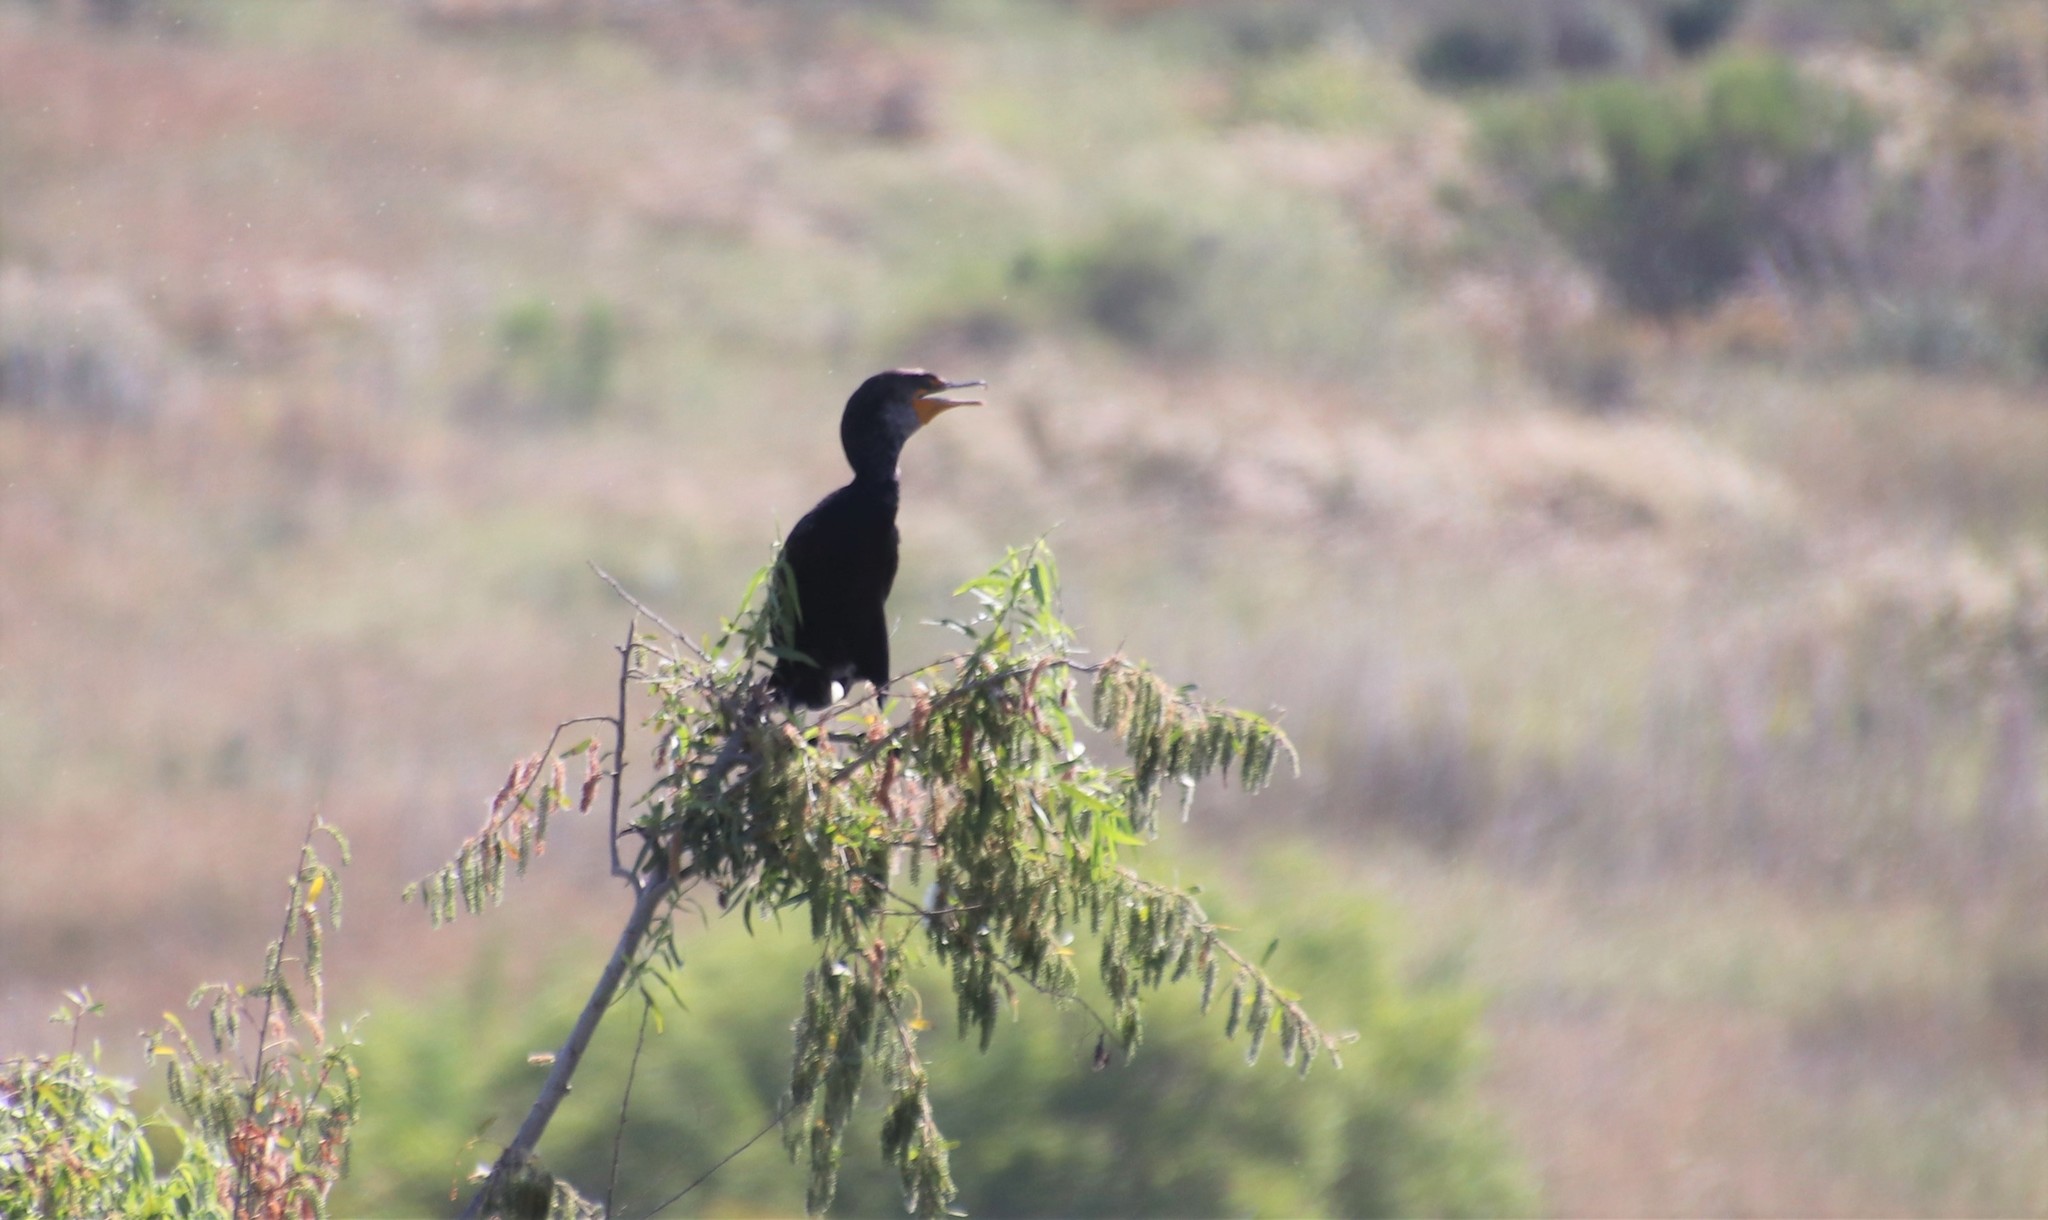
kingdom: Animalia
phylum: Chordata
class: Aves
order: Suliformes
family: Phalacrocoracidae
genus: Phalacrocorax
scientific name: Phalacrocorax auritus
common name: Double-crested cormorant
